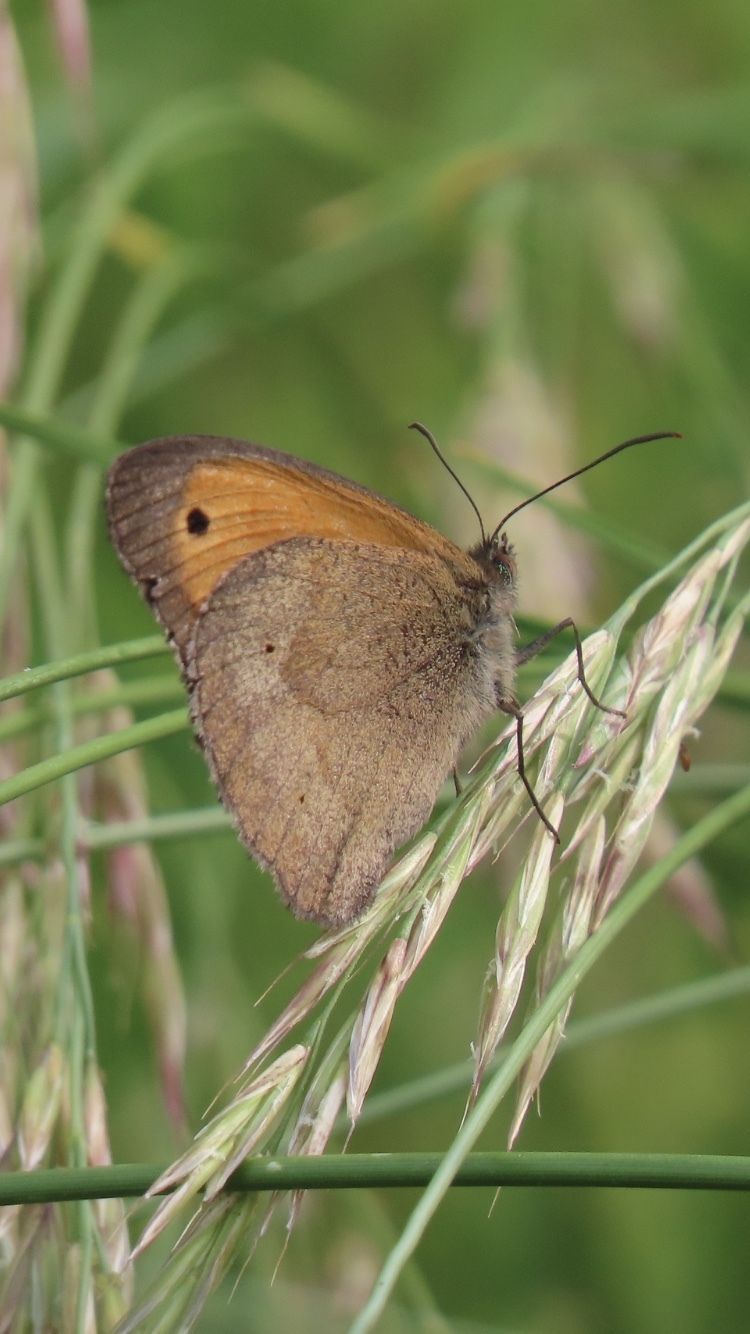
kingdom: Animalia
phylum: Arthropoda
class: Insecta
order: Lepidoptera
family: Nymphalidae
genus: Maniola
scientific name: Maniola jurtina
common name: Meadow brown
